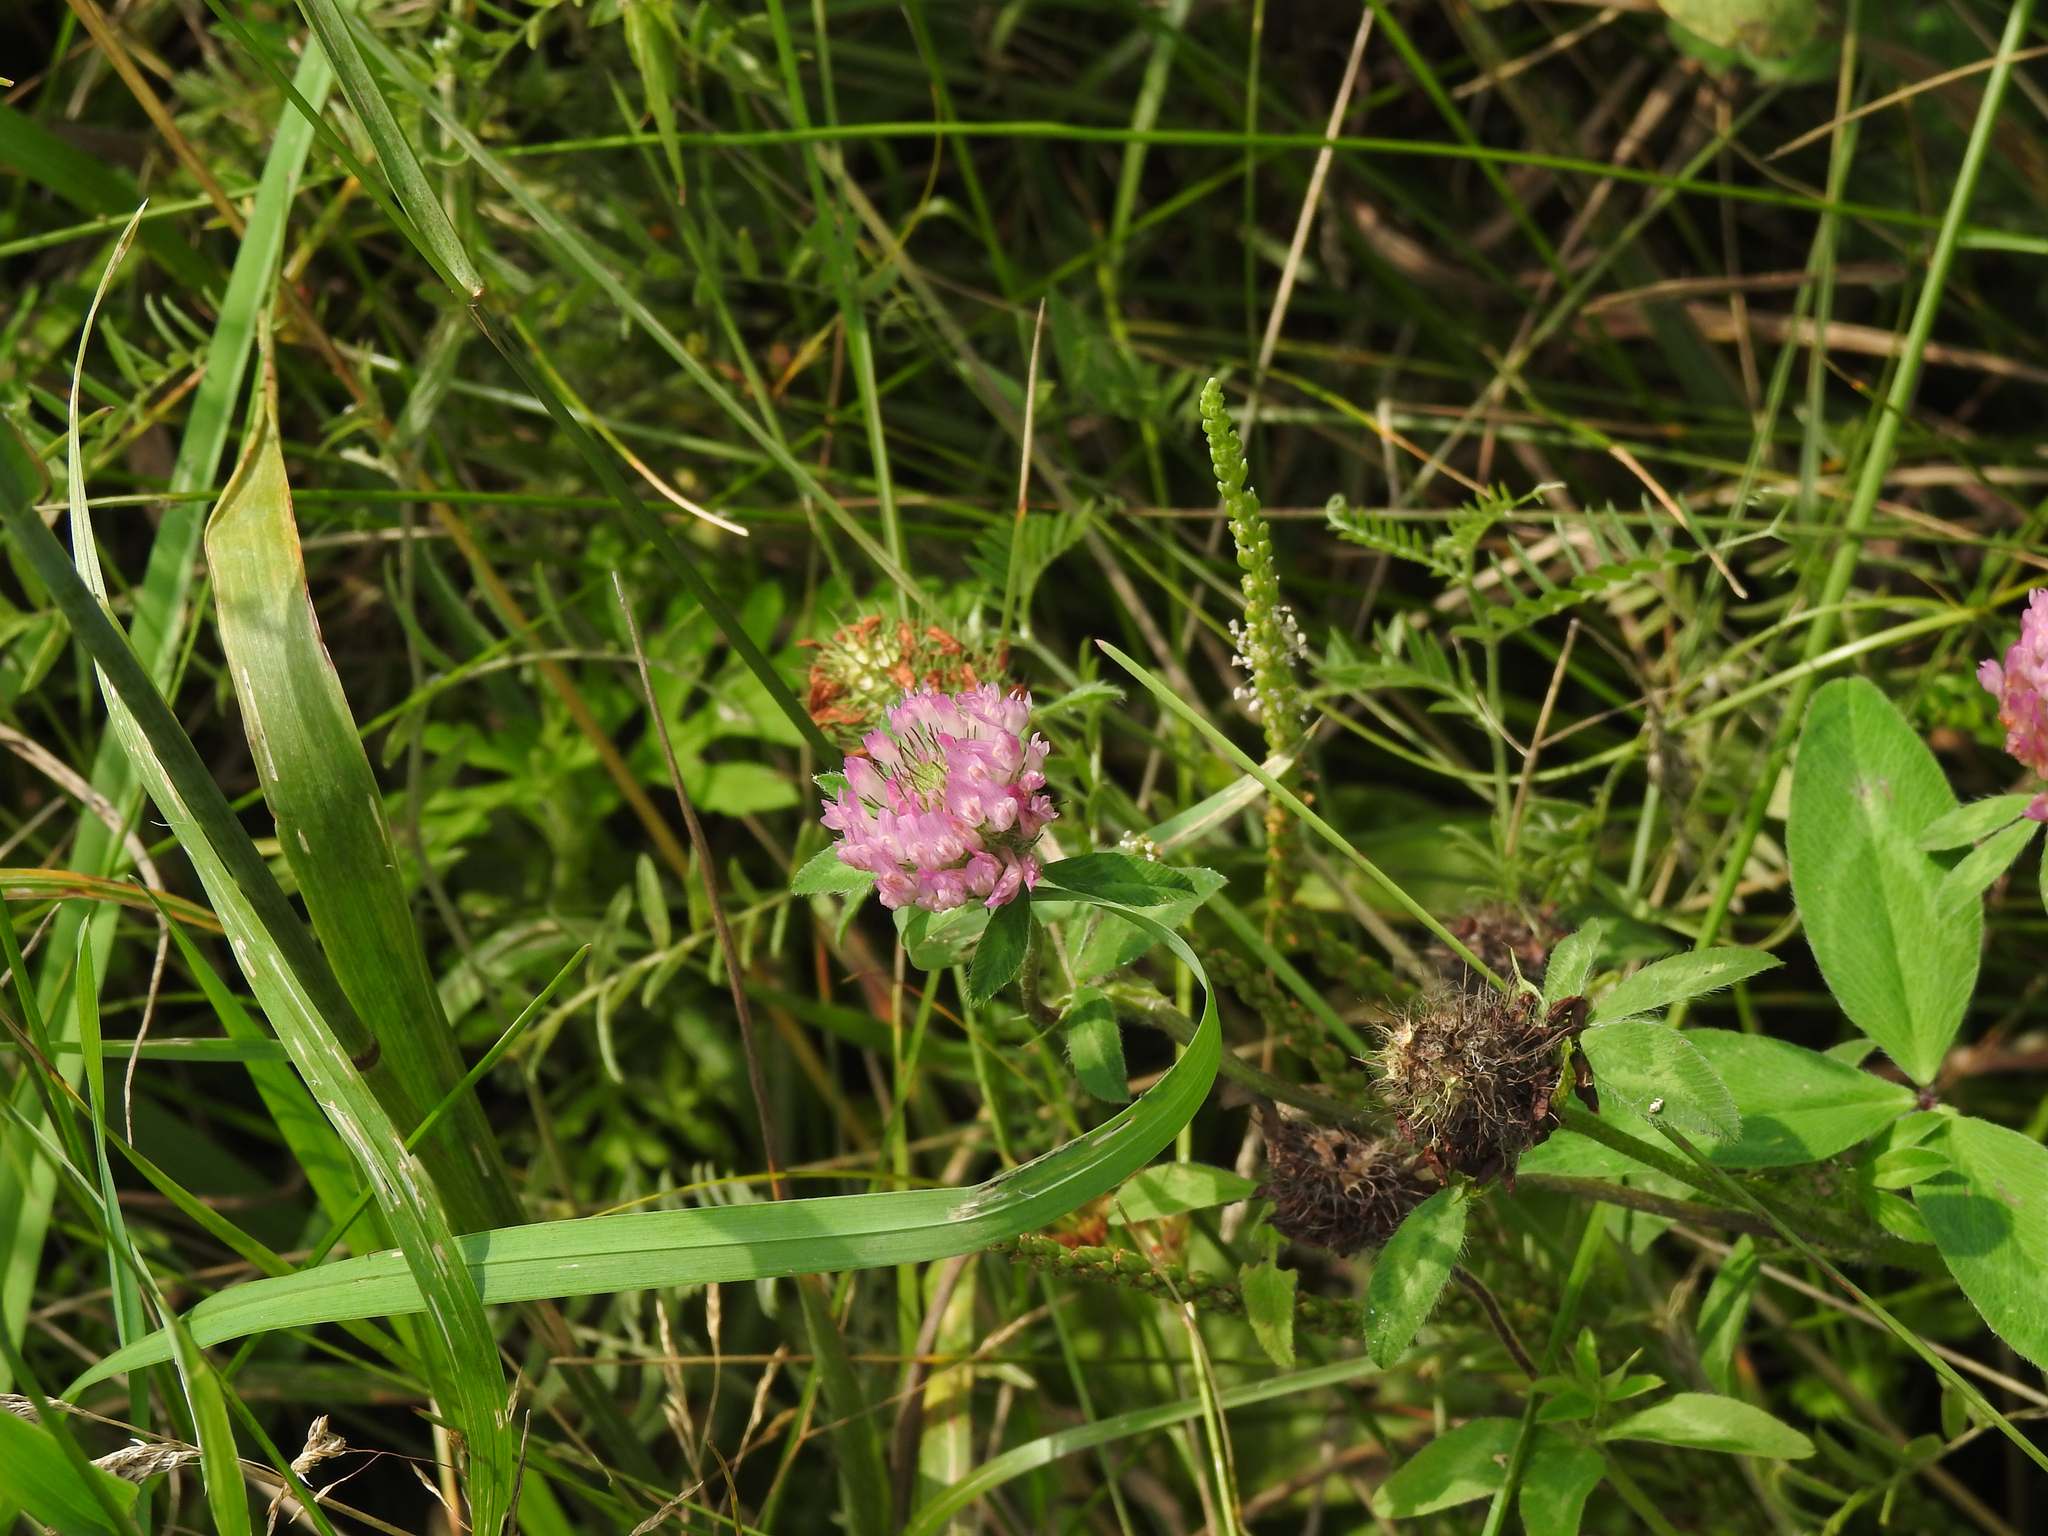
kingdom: Plantae
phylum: Tracheophyta
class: Magnoliopsida
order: Fabales
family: Fabaceae
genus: Trifolium
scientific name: Trifolium pratense
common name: Red clover
